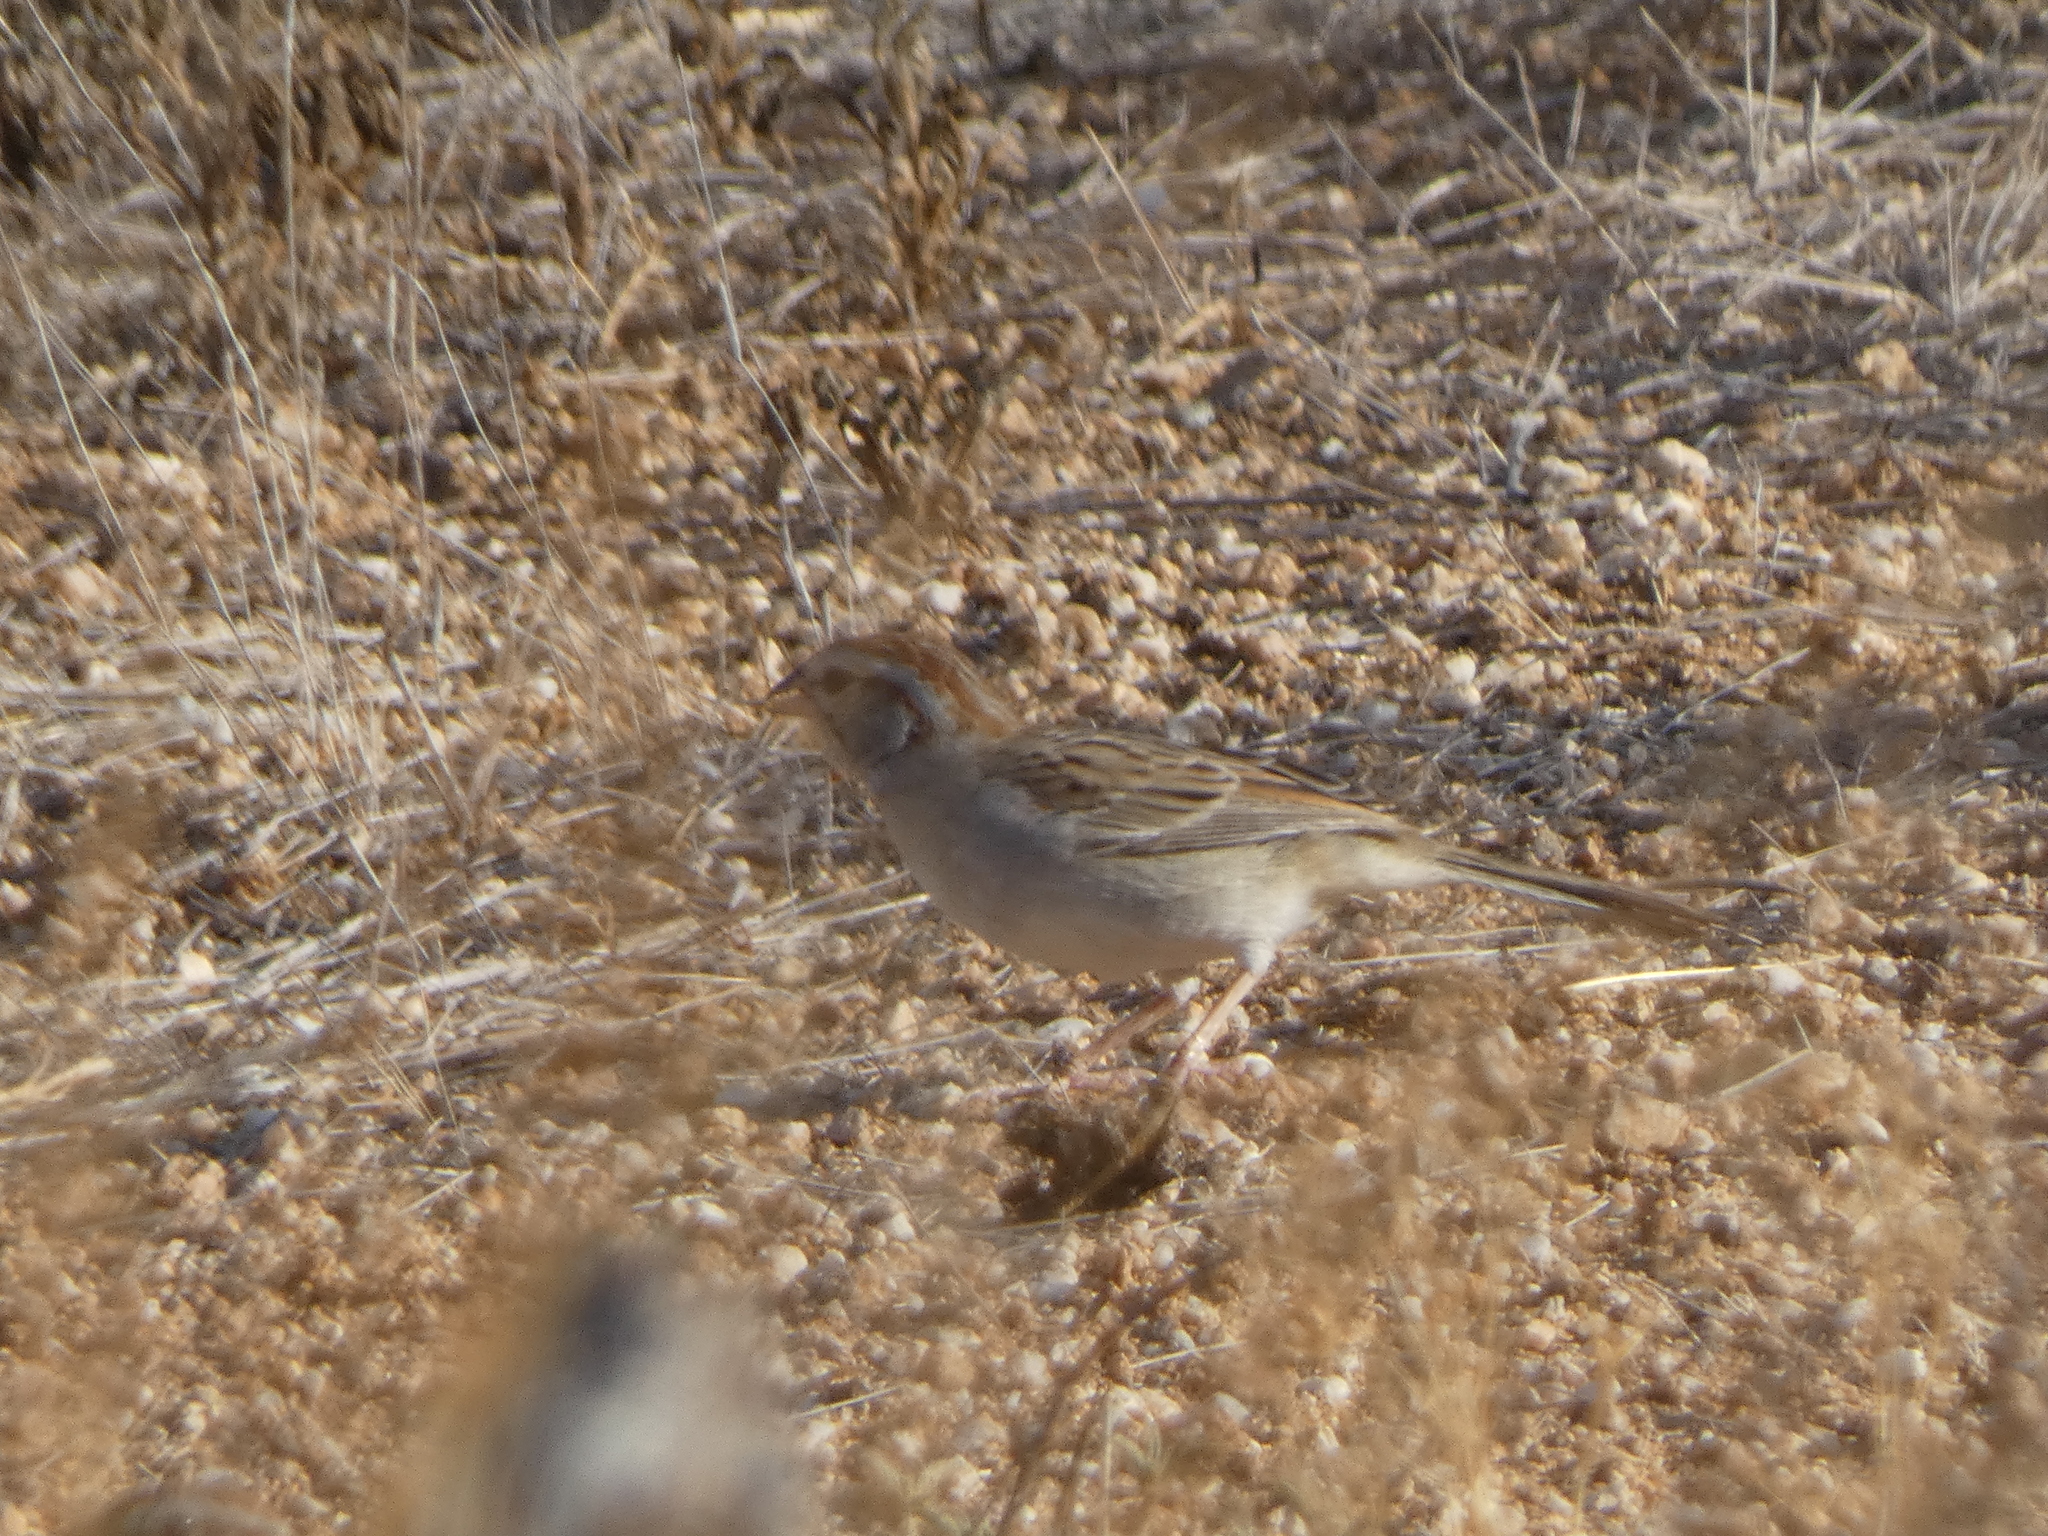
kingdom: Animalia
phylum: Chordata
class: Aves
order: Passeriformes
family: Passerellidae
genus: Peucaea
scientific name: Peucaea carpalis
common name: Rufous-winged sparrow
